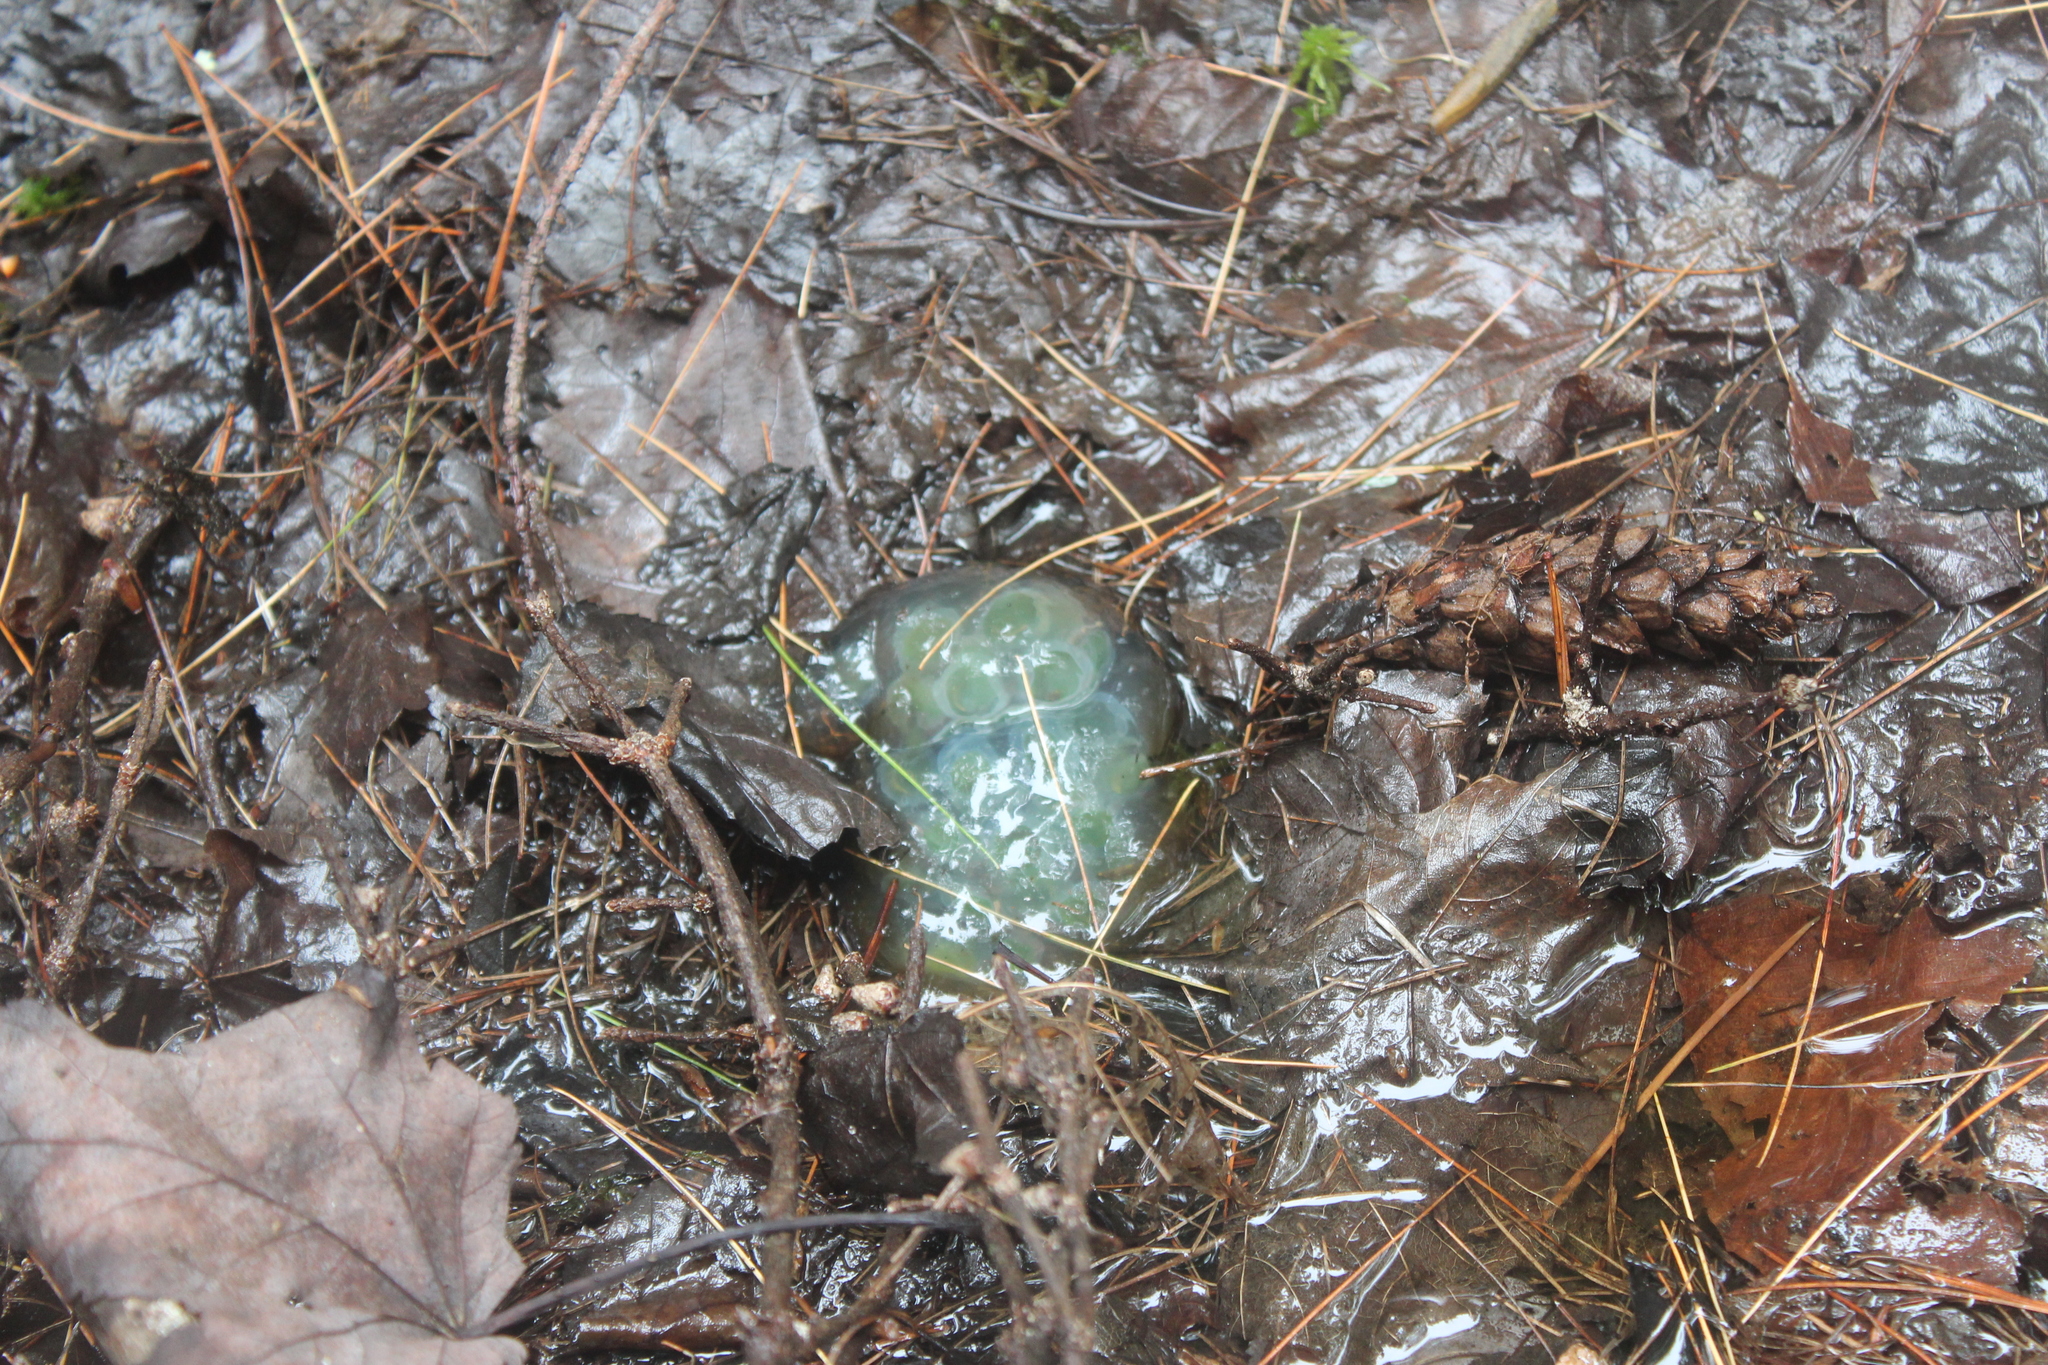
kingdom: Animalia
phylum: Chordata
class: Amphibia
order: Caudata
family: Ambystomatidae
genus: Ambystoma
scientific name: Ambystoma maculatum
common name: Spotted salamander
